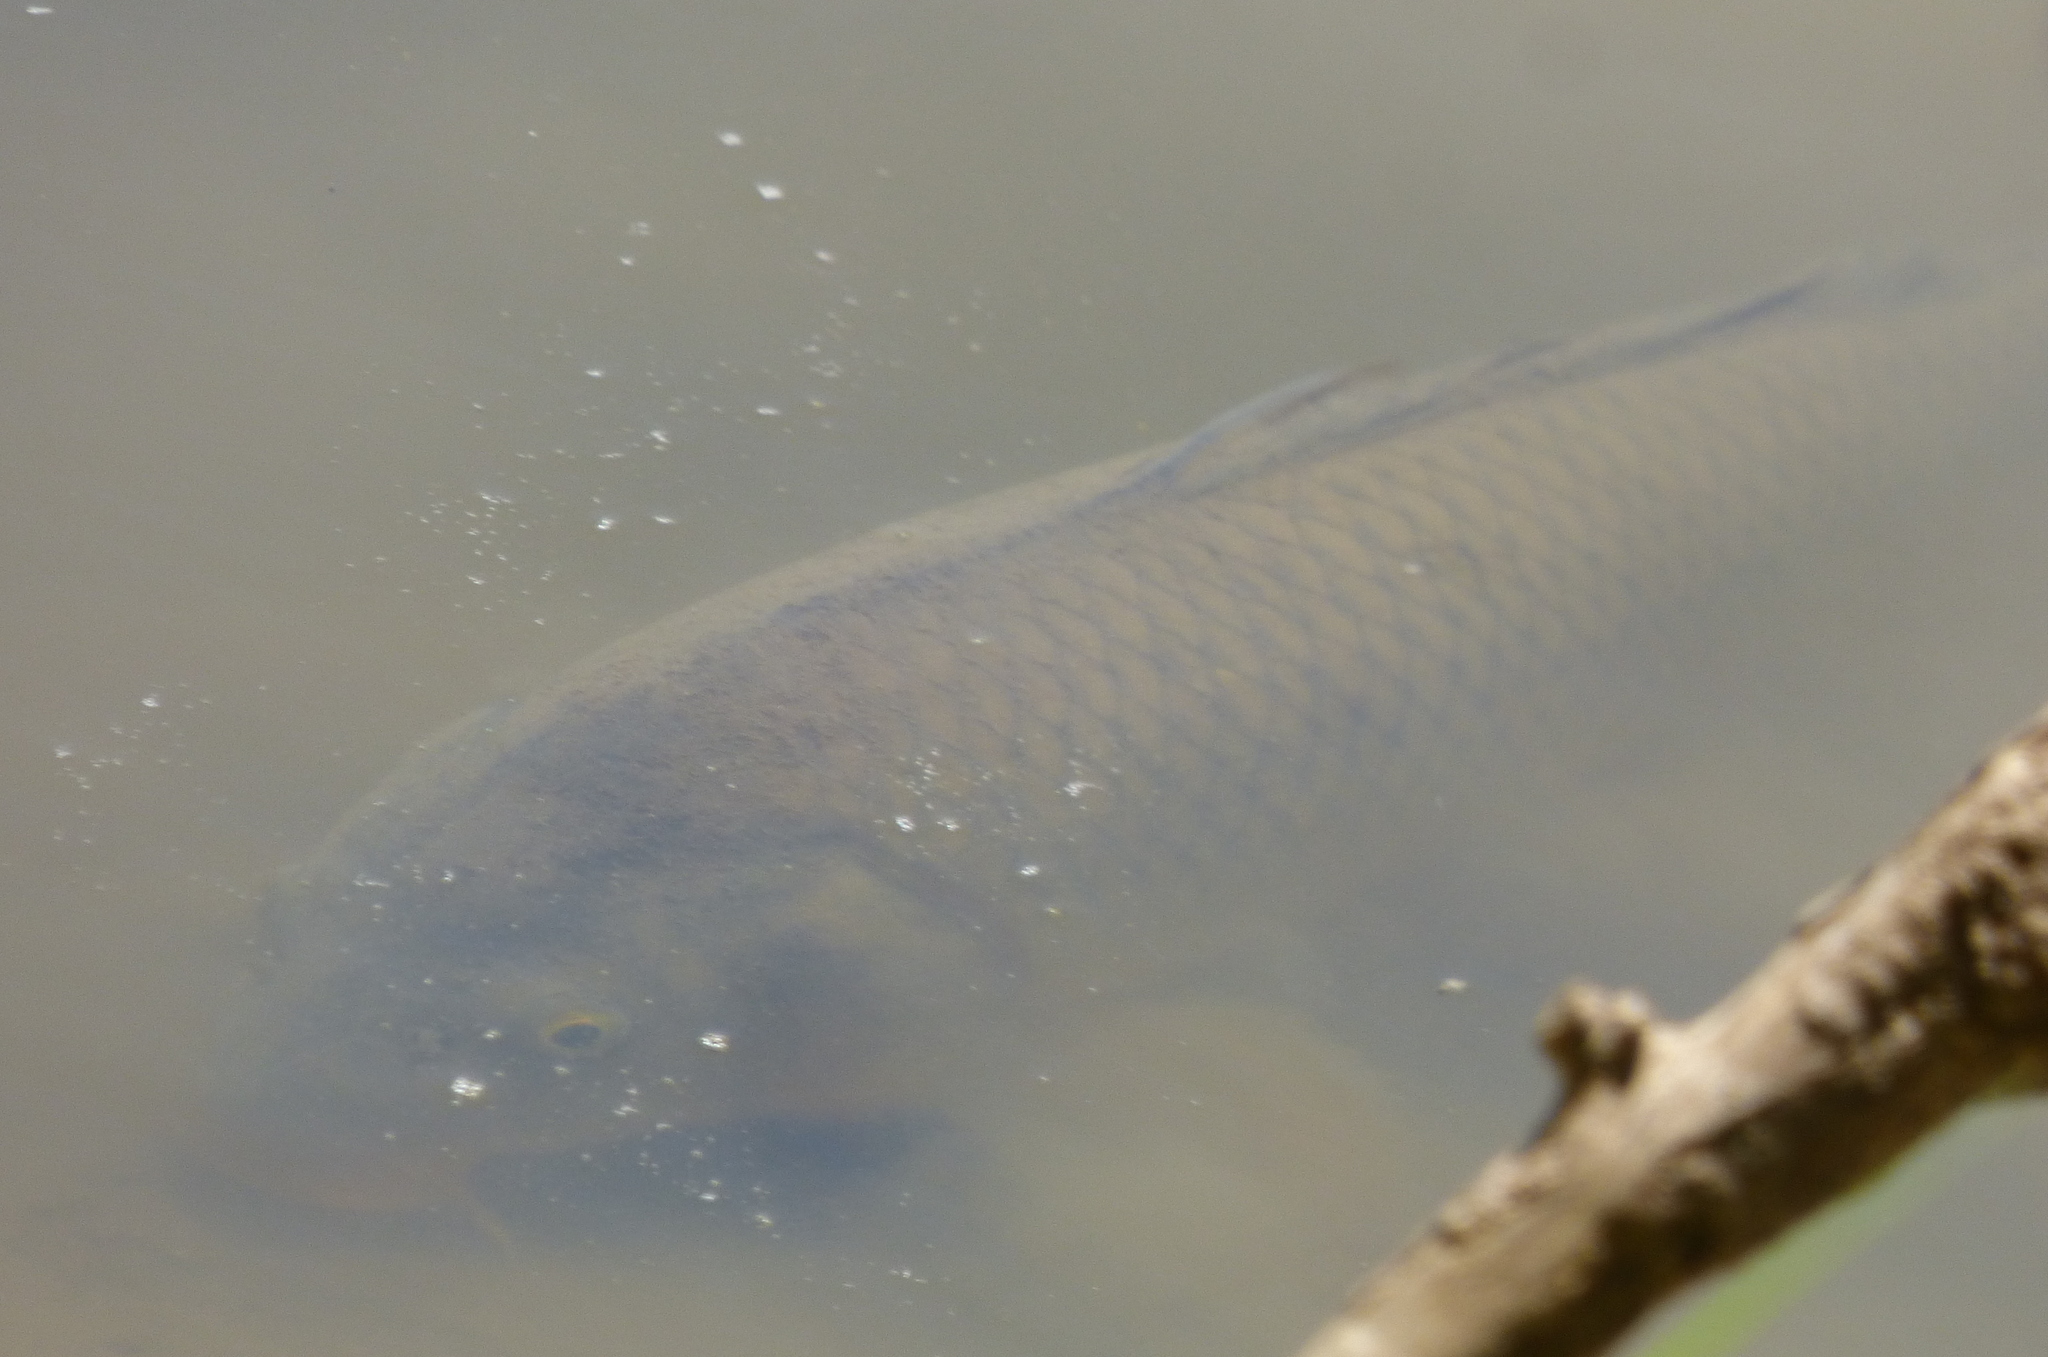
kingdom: Animalia
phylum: Chordata
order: Cypriniformes
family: Cyprinidae
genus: Cyprinus
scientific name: Cyprinus carpio
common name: Common carp
